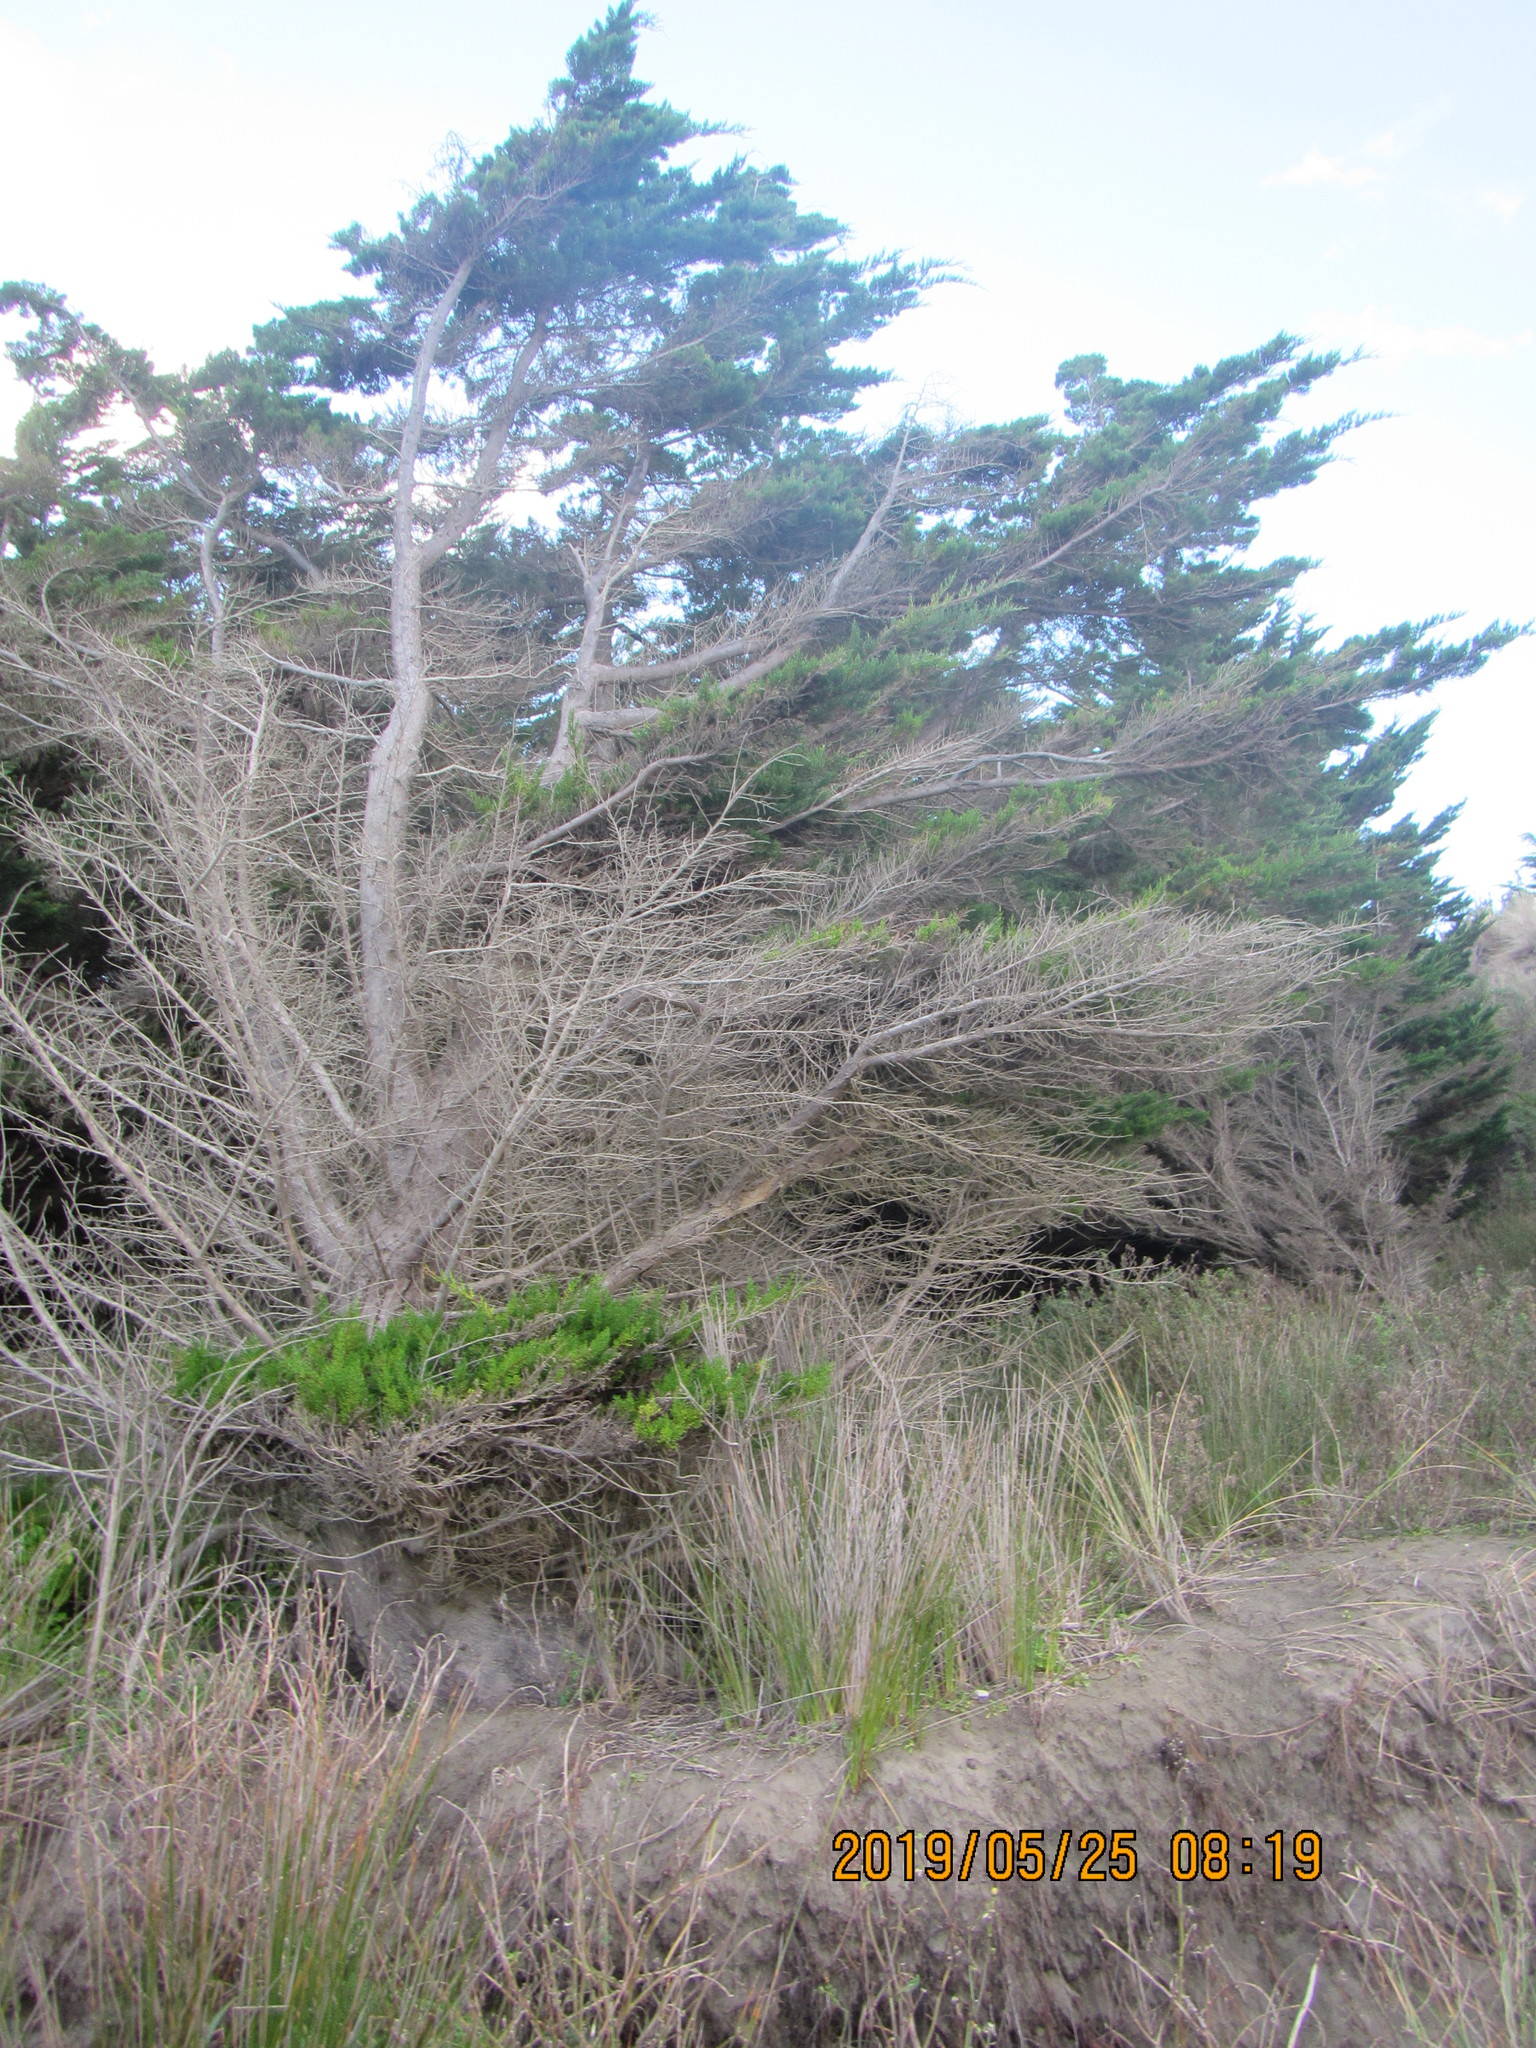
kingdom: Plantae
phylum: Tracheophyta
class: Pinopsida
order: Pinales
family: Cupressaceae
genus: Cupressus
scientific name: Cupressus macrocarpa
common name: Monterey cypress
